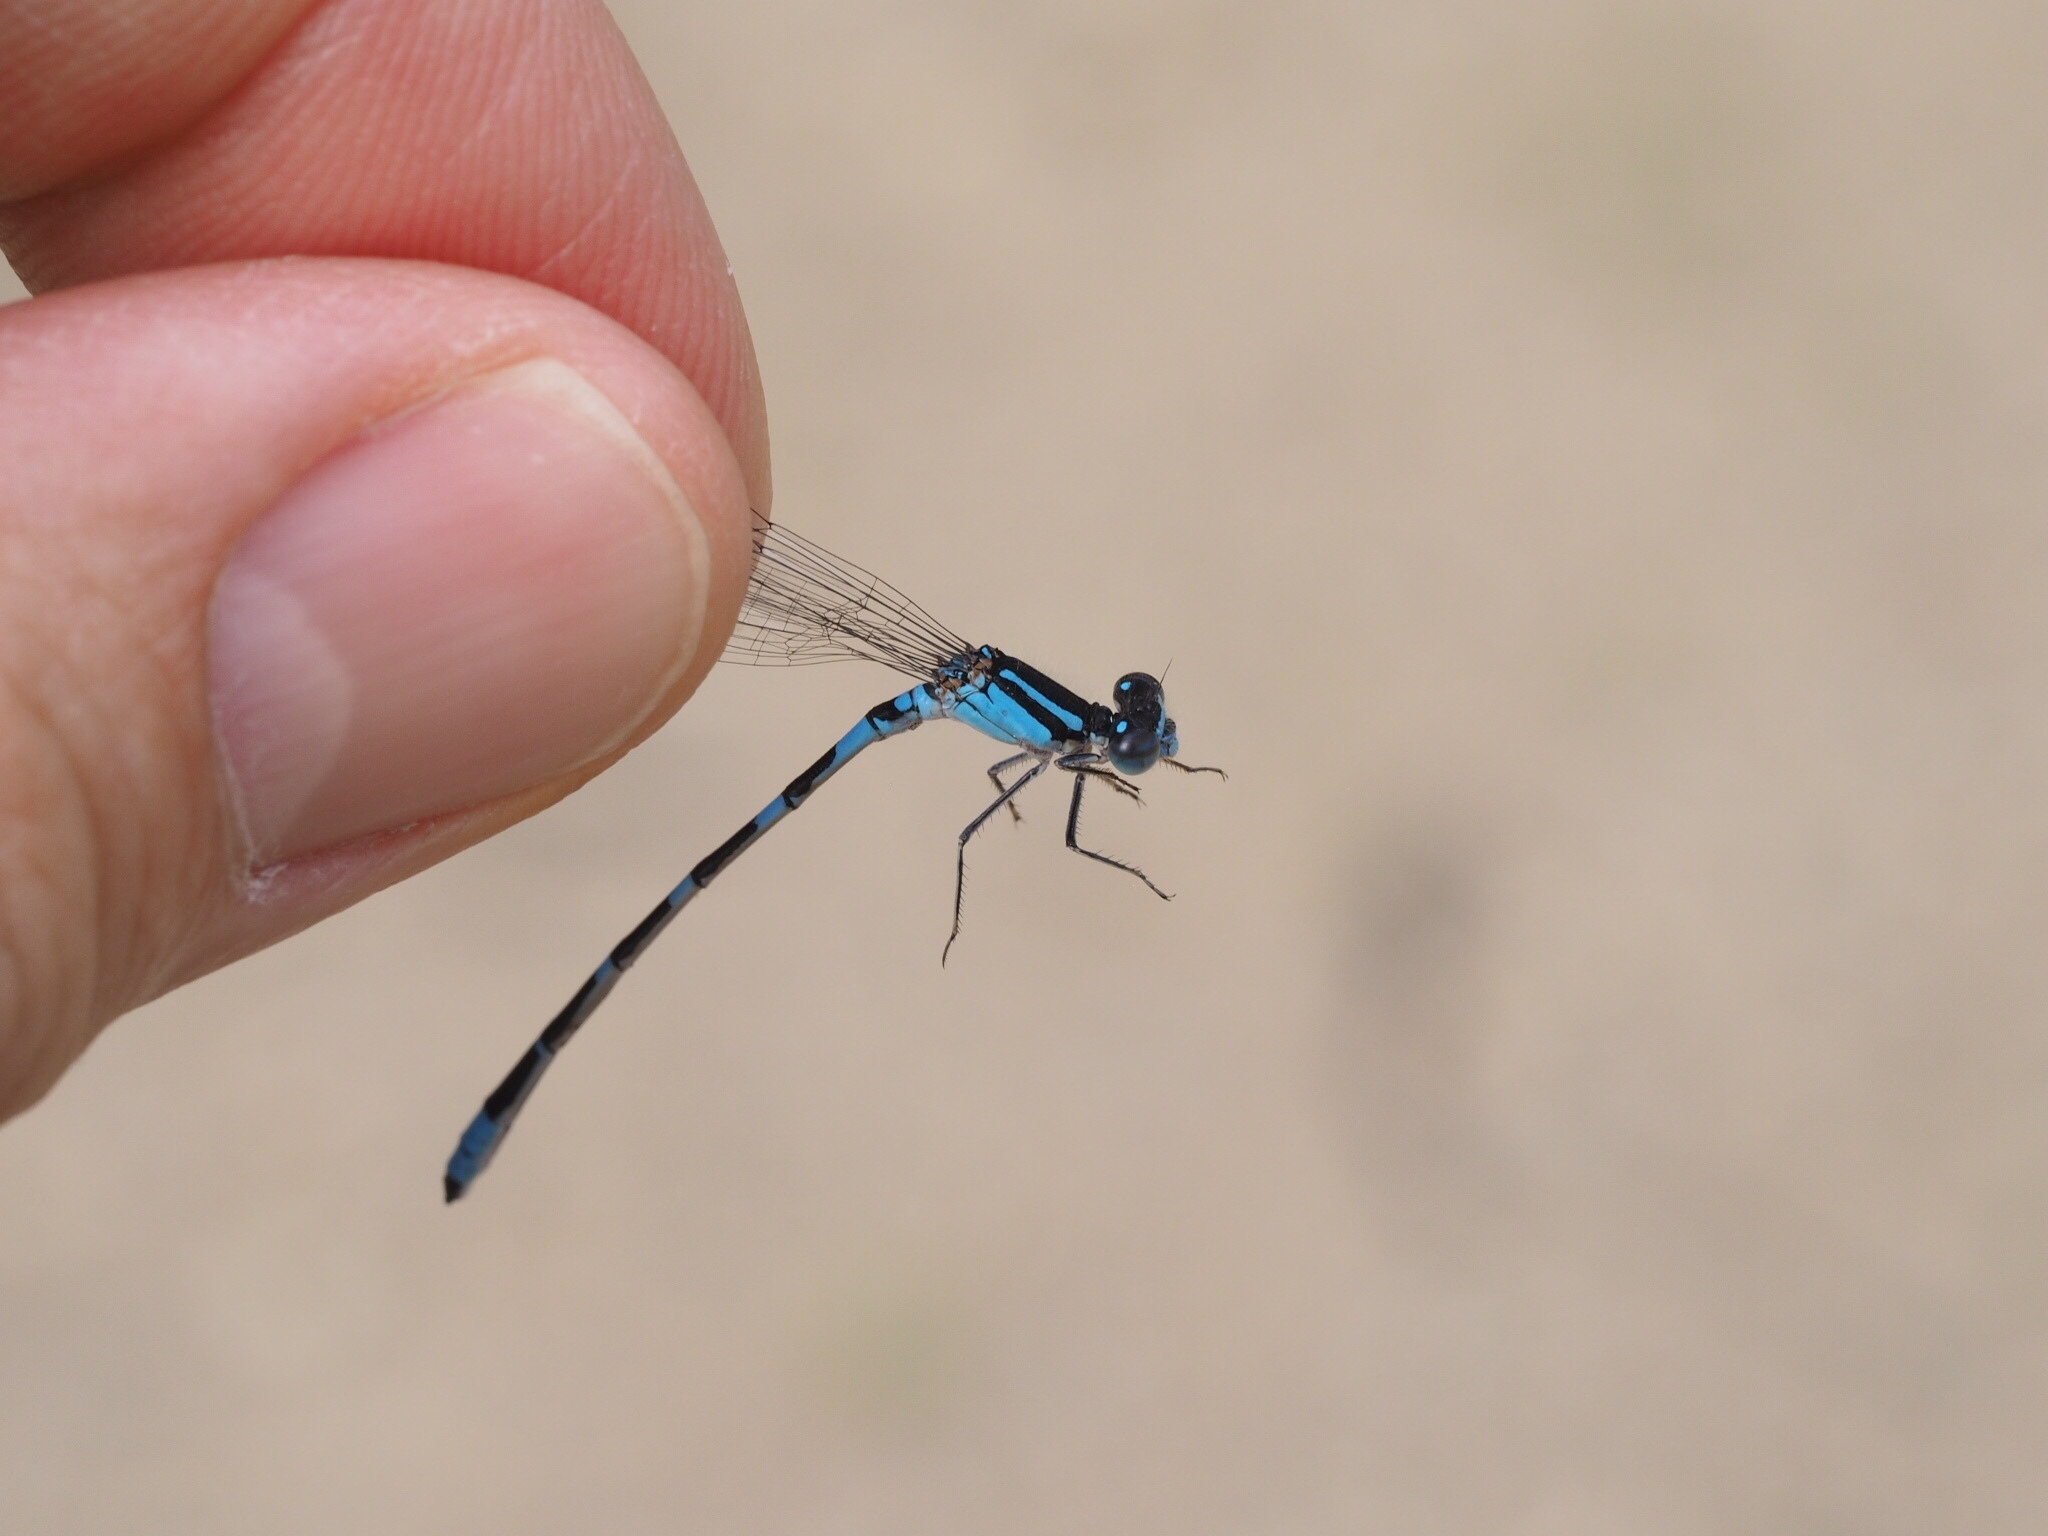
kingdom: Animalia
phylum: Arthropoda
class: Insecta
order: Odonata
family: Coenagrionidae
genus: Enallagma
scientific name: Enallagma carunculatum
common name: Tule bluet
